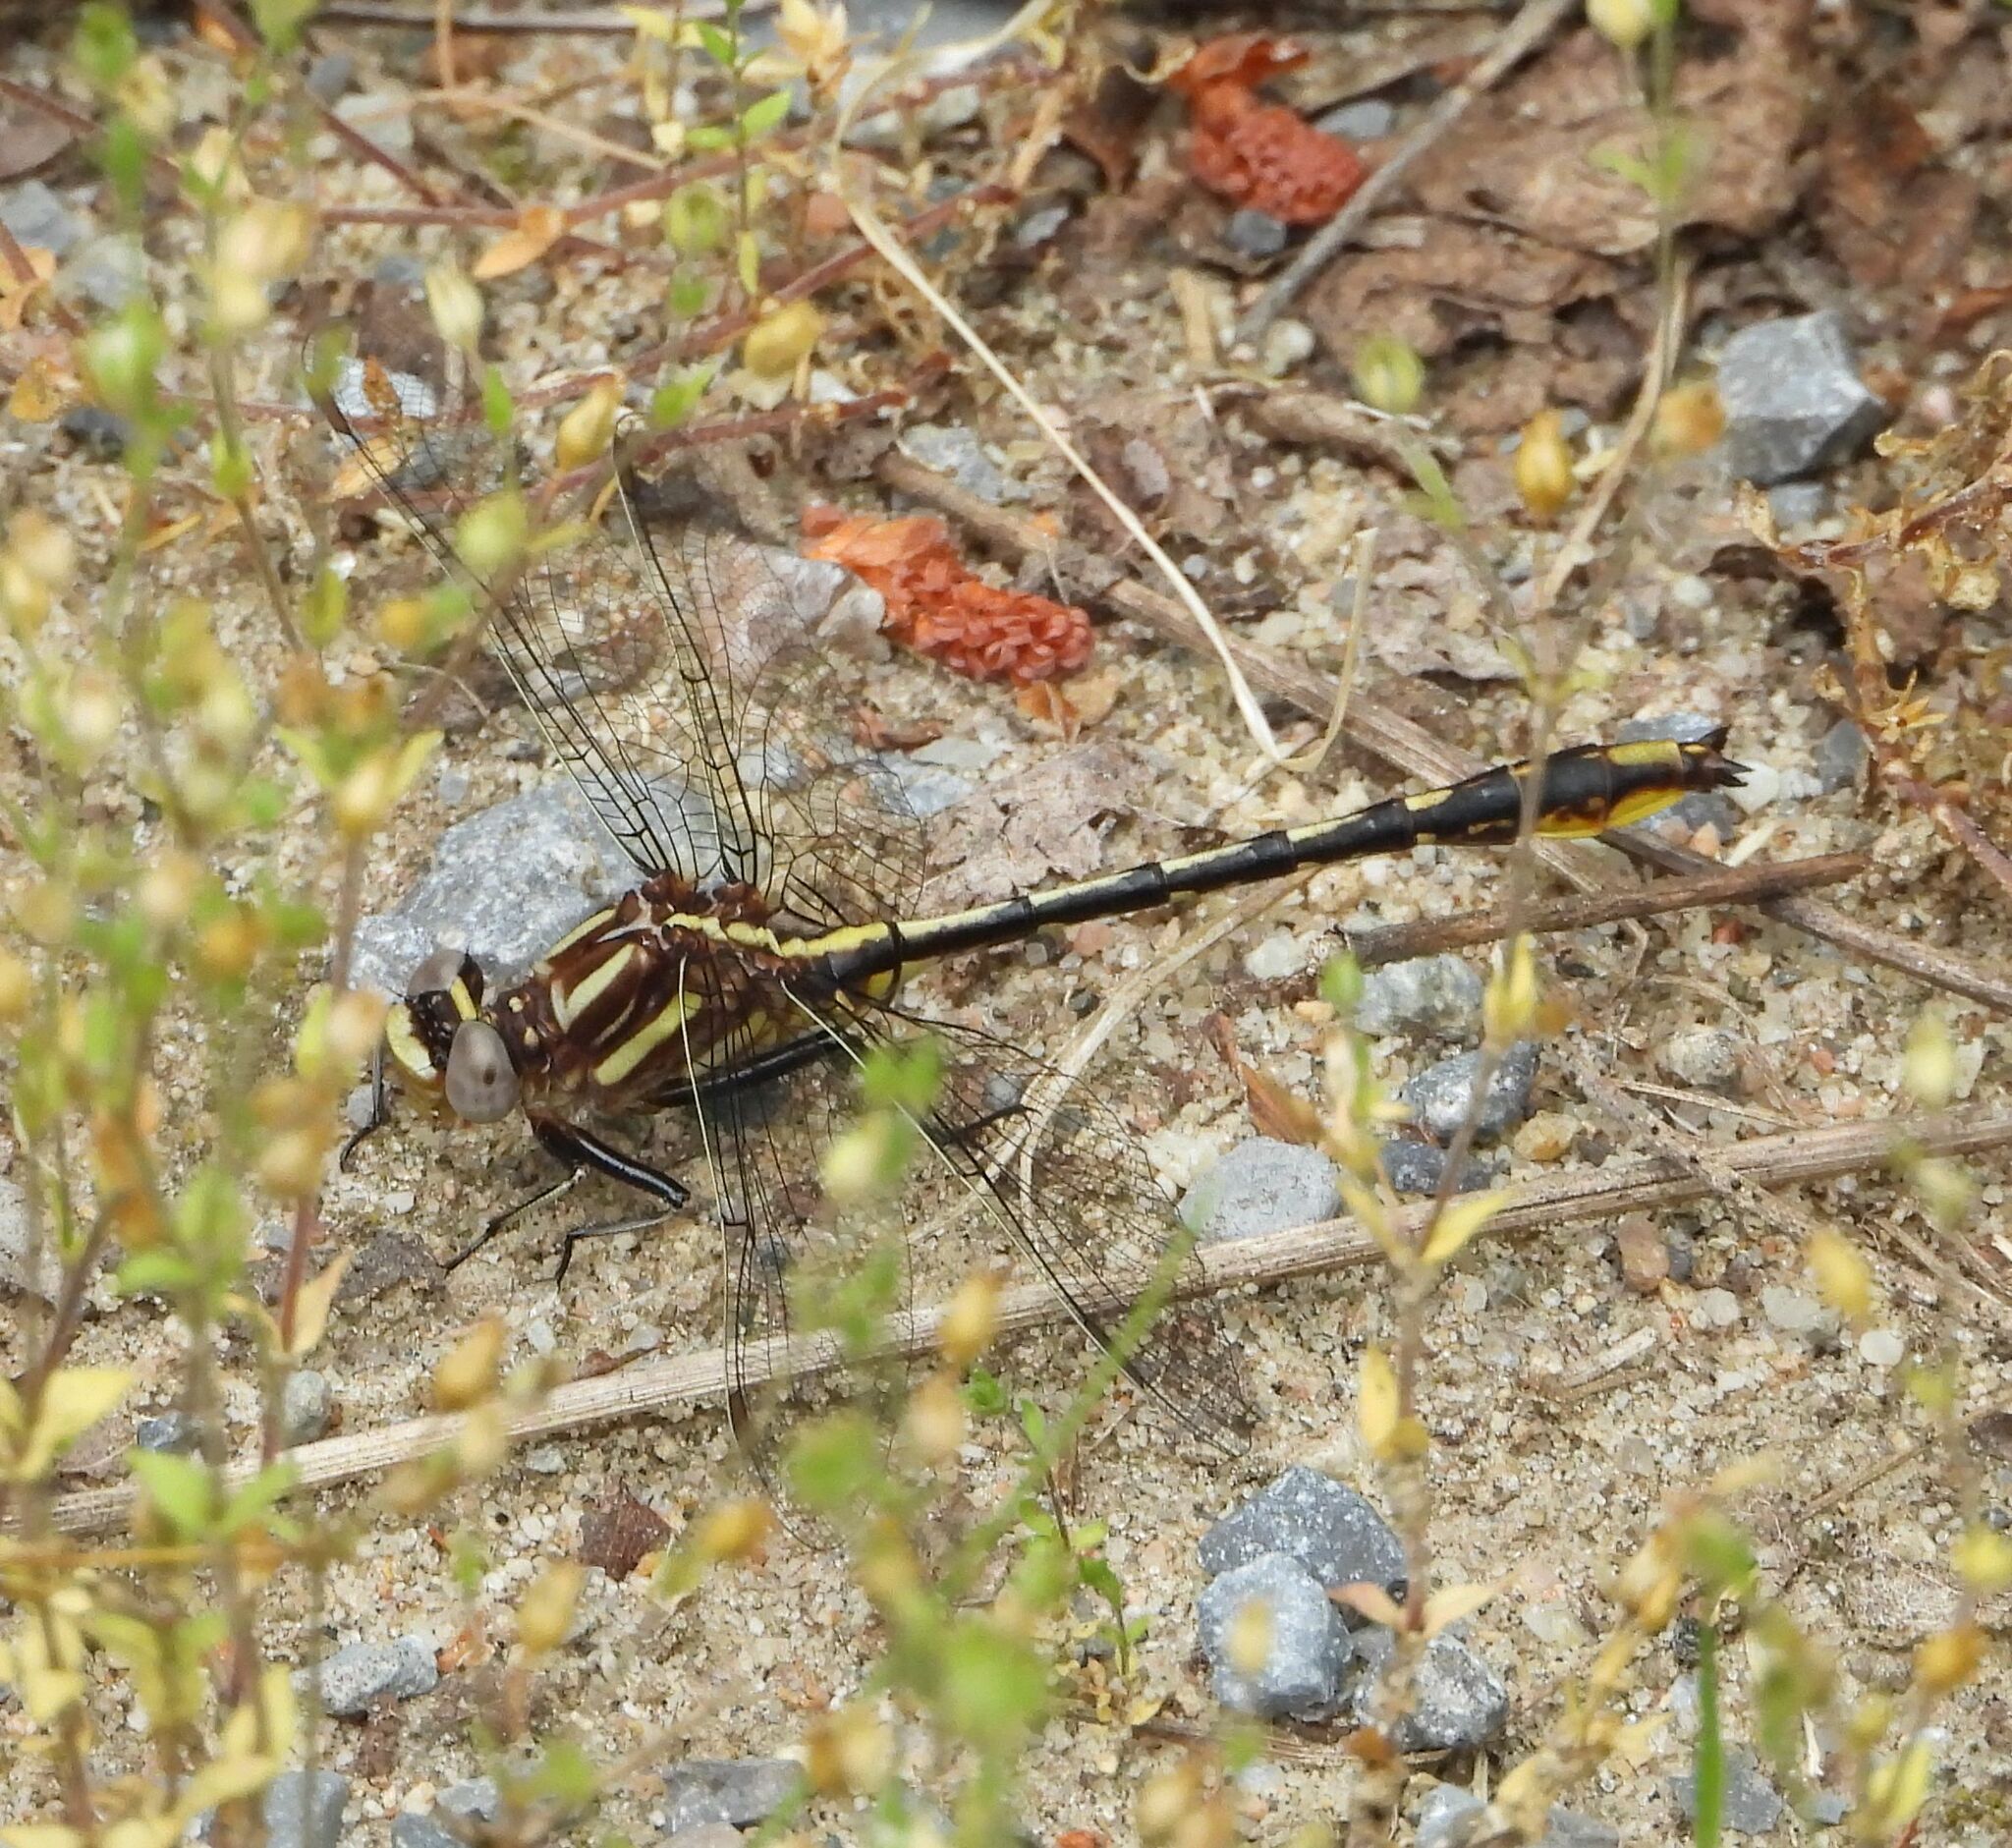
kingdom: Animalia
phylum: Arthropoda
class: Insecta
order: Odonata
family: Gomphidae
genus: Phanogomphus
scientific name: Phanogomphus exilis
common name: Lancet clubtail
